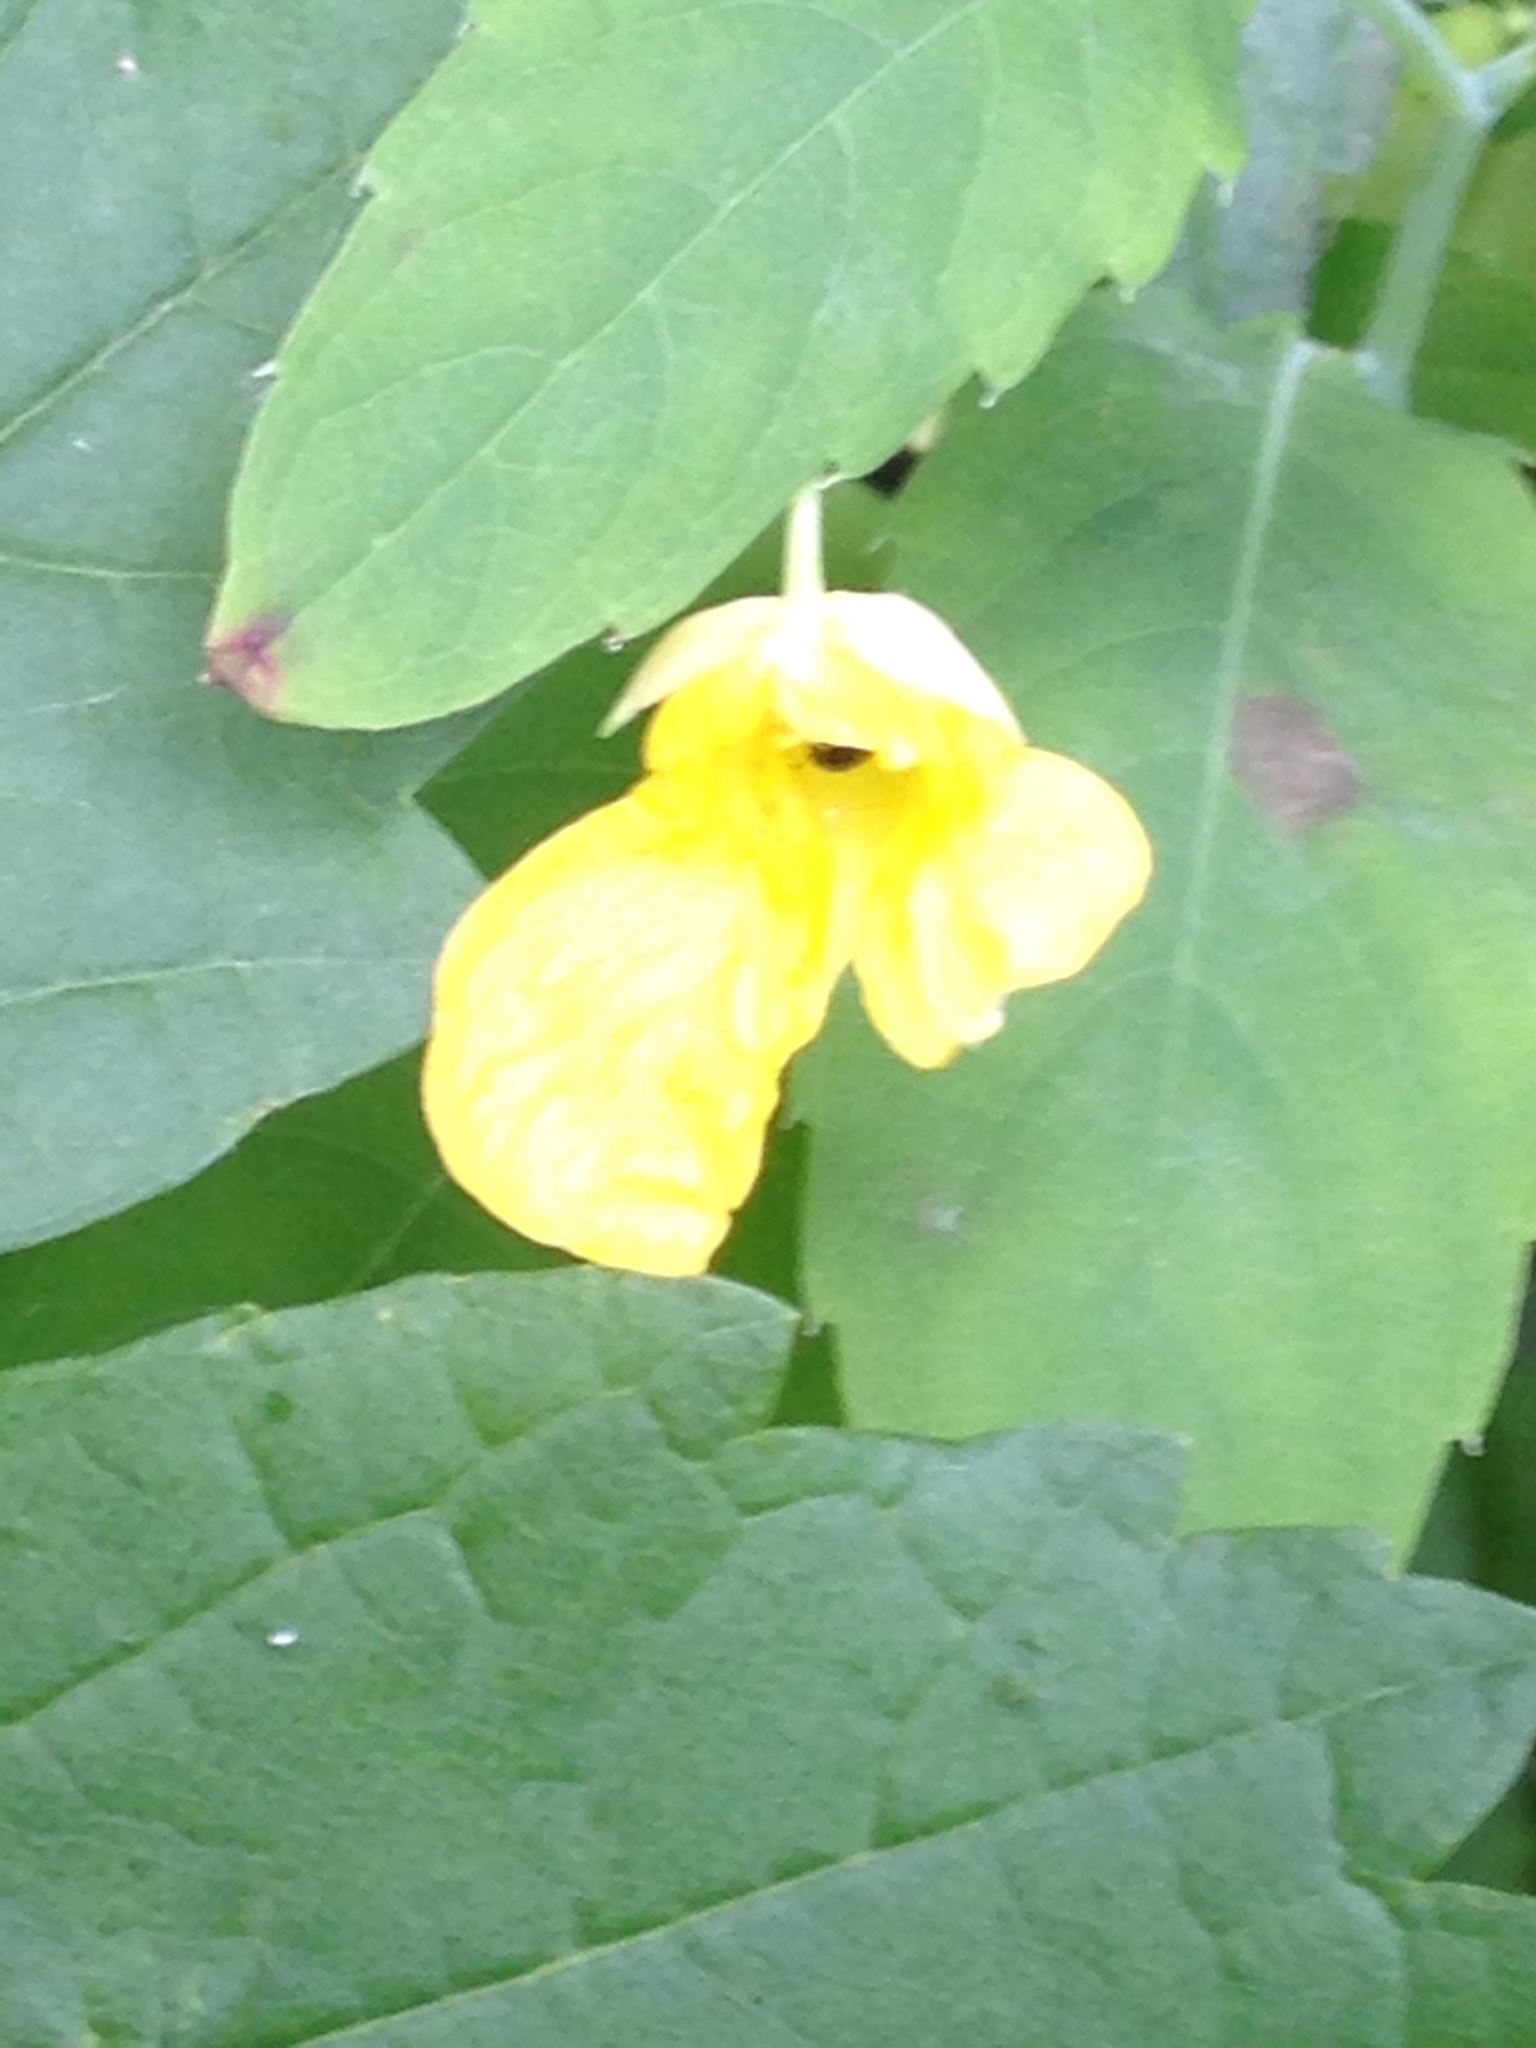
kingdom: Plantae
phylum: Tracheophyta
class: Magnoliopsida
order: Ericales
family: Balsaminaceae
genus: Impatiens
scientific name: Impatiens noli-tangere
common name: Touch-me-not balsam
